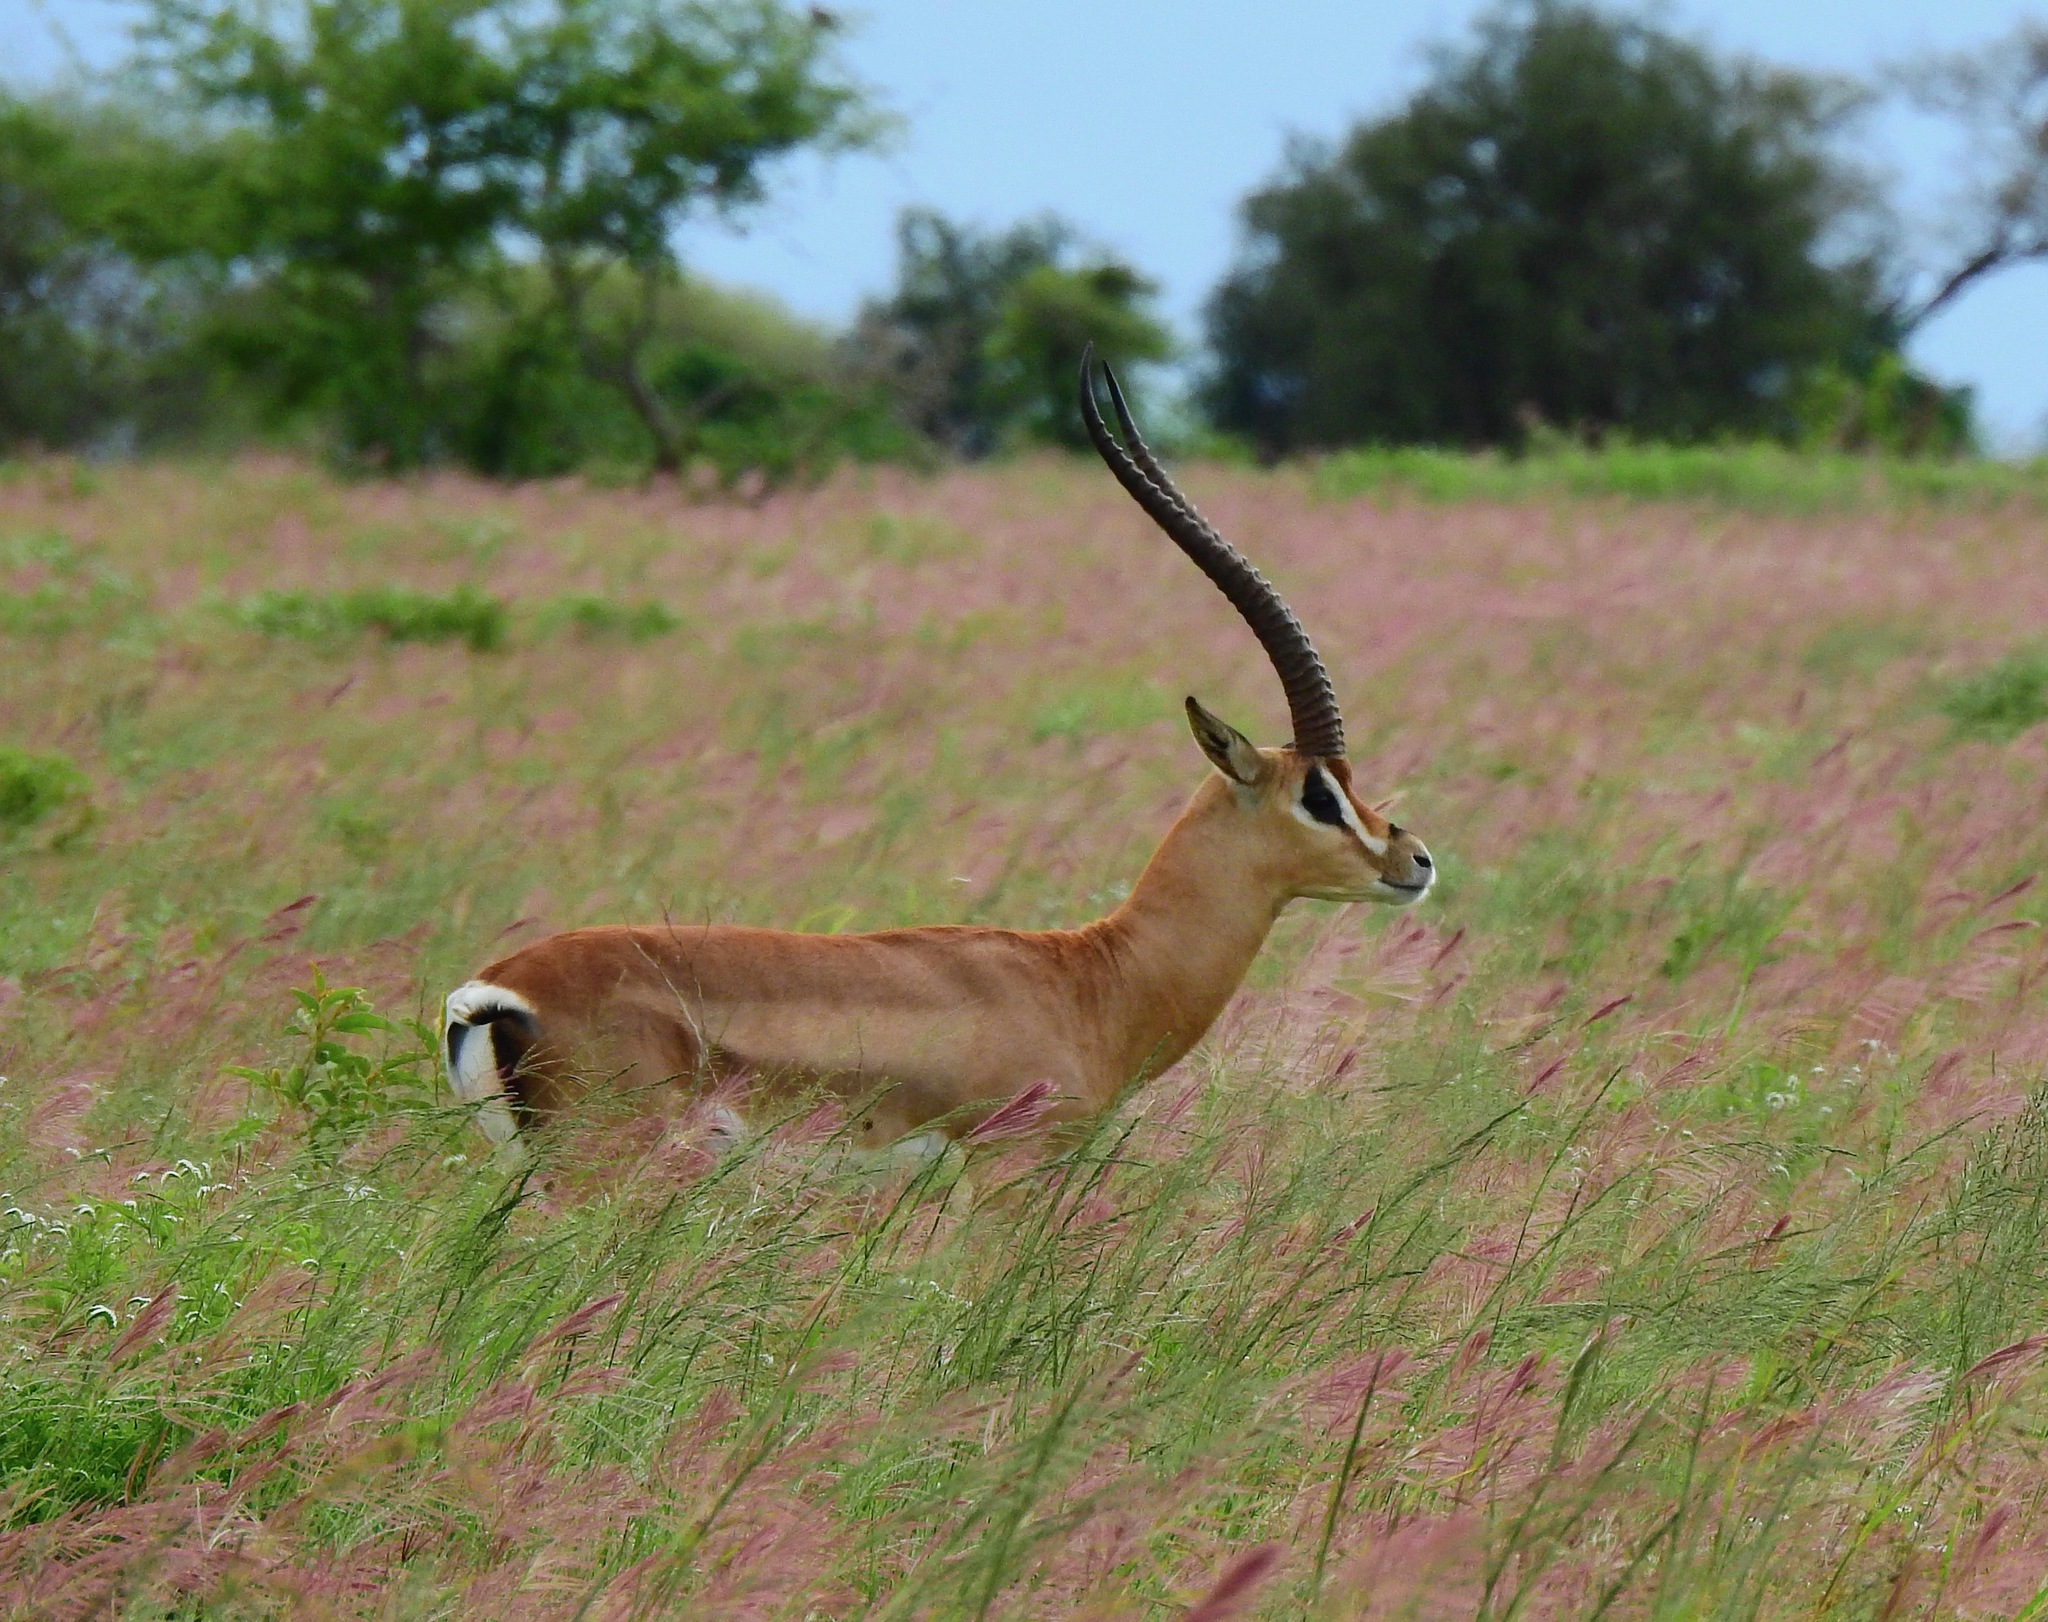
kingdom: Animalia
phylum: Chordata
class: Mammalia
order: Artiodactyla
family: Bovidae
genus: Nanger
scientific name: Nanger granti
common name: Grant's gazelle
